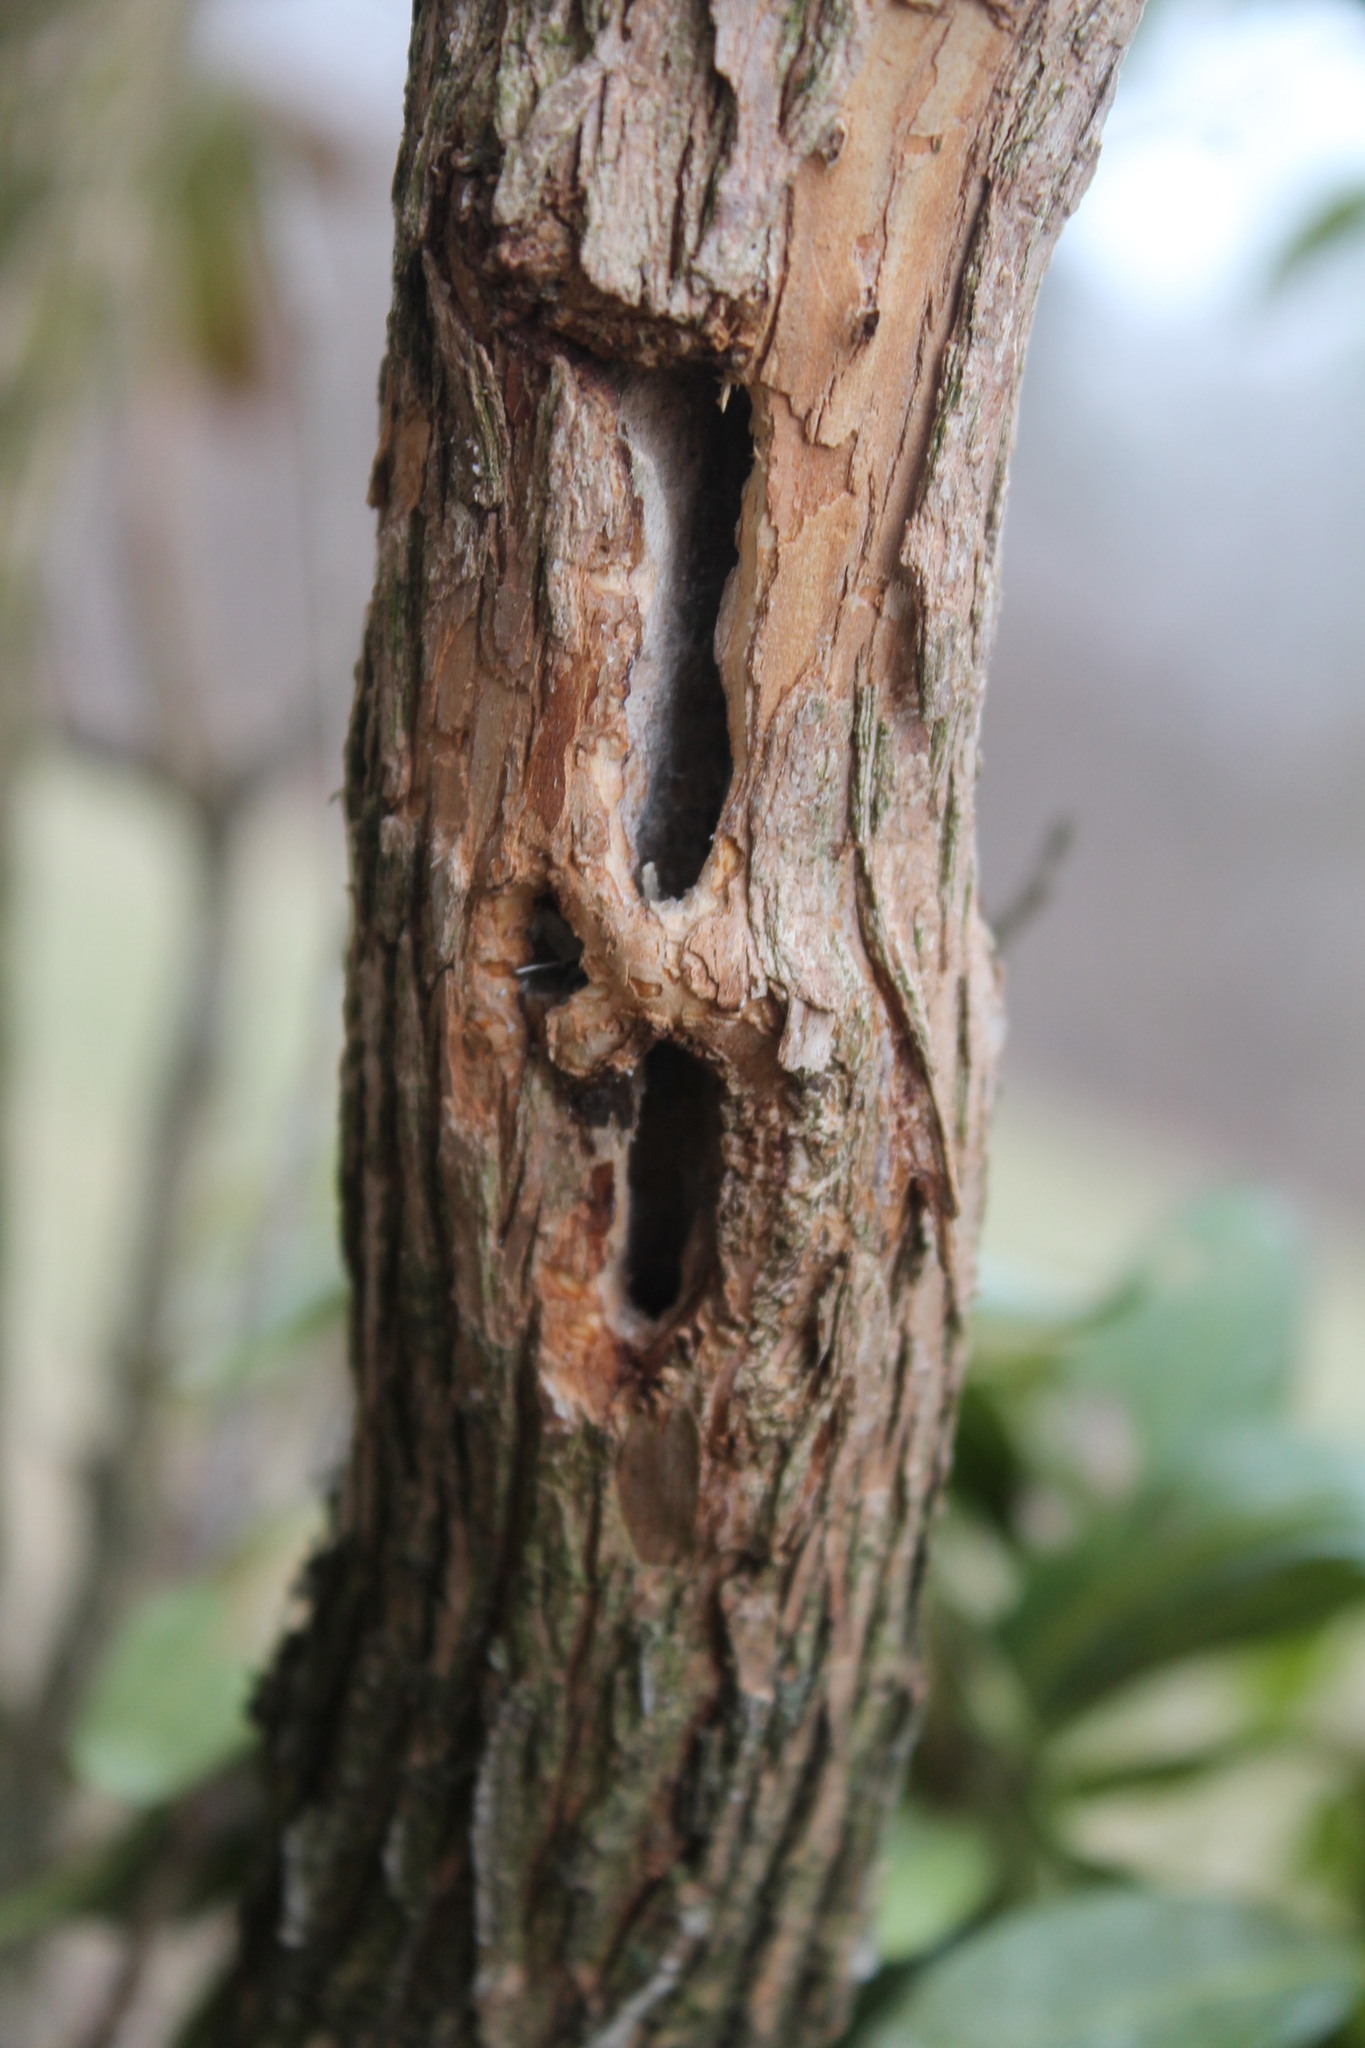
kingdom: Animalia
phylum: Chordata
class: Aves
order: Piciformes
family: Picidae
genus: Dryobates
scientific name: Dryobates pubescens
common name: Downy woodpecker
